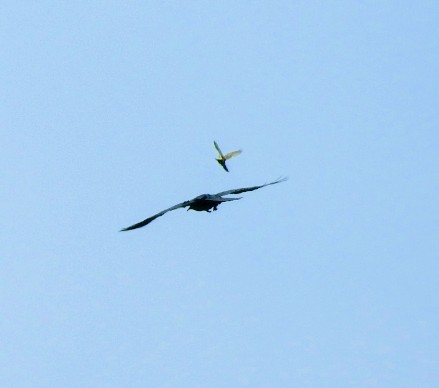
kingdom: Animalia
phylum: Chordata
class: Aves
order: Passeriformes
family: Corvidae
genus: Corvus
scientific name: Corvus corax
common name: Common raven
